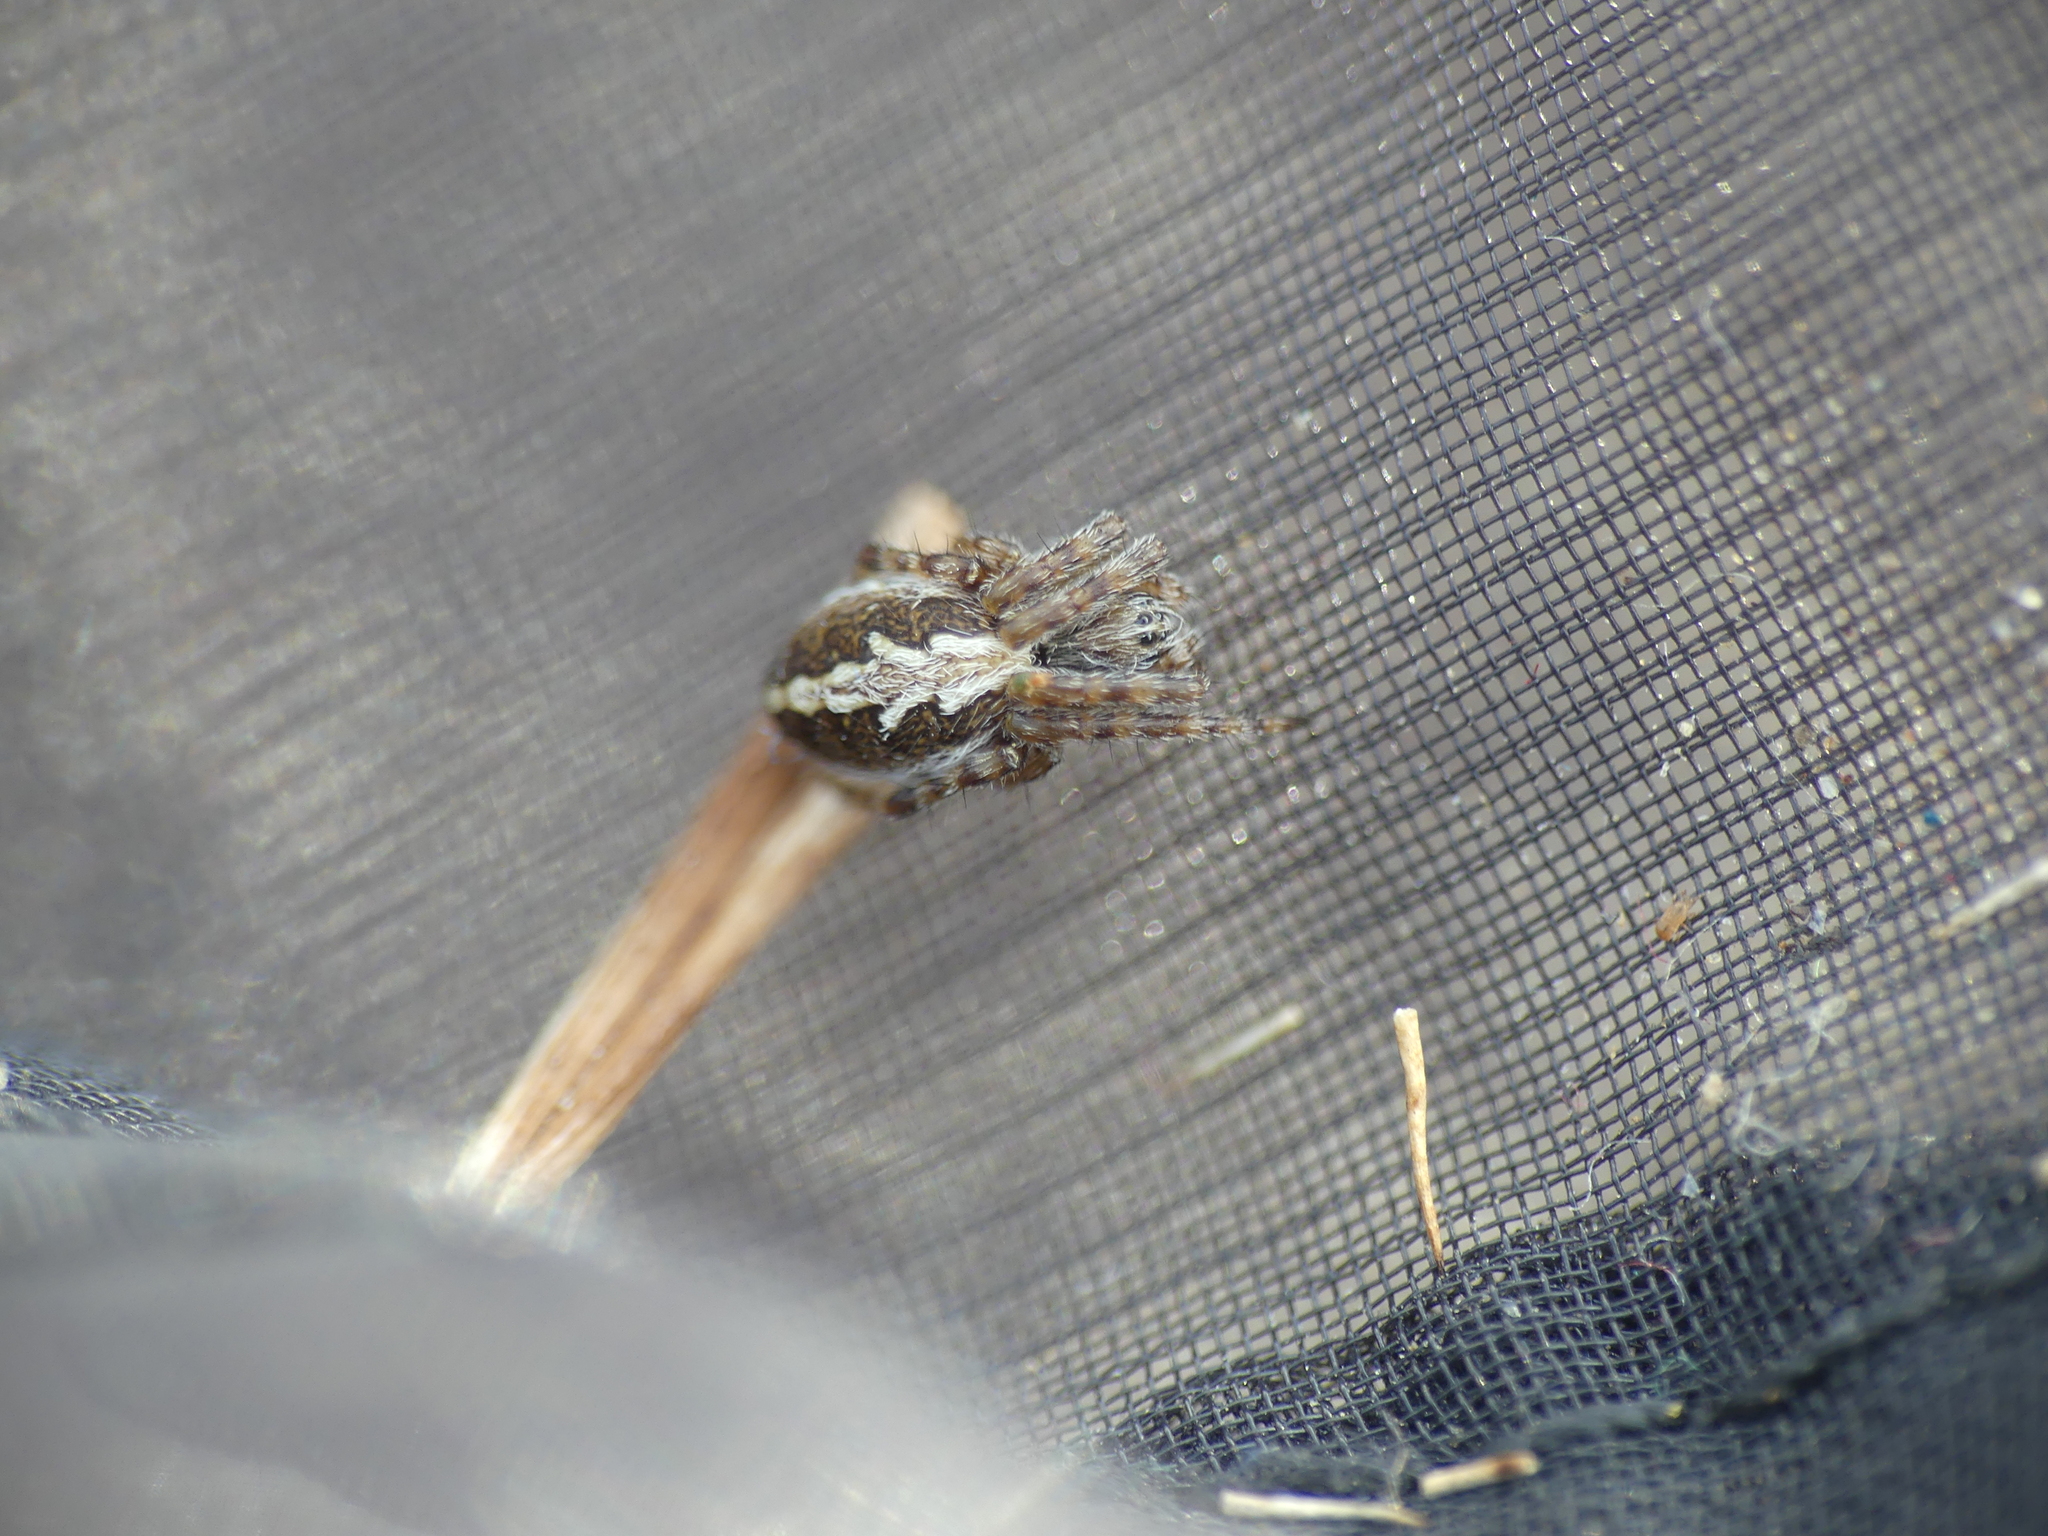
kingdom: Animalia
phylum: Arthropoda
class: Arachnida
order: Araneae
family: Araneidae
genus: Aculepeira
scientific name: Aculepeira ceropegia
